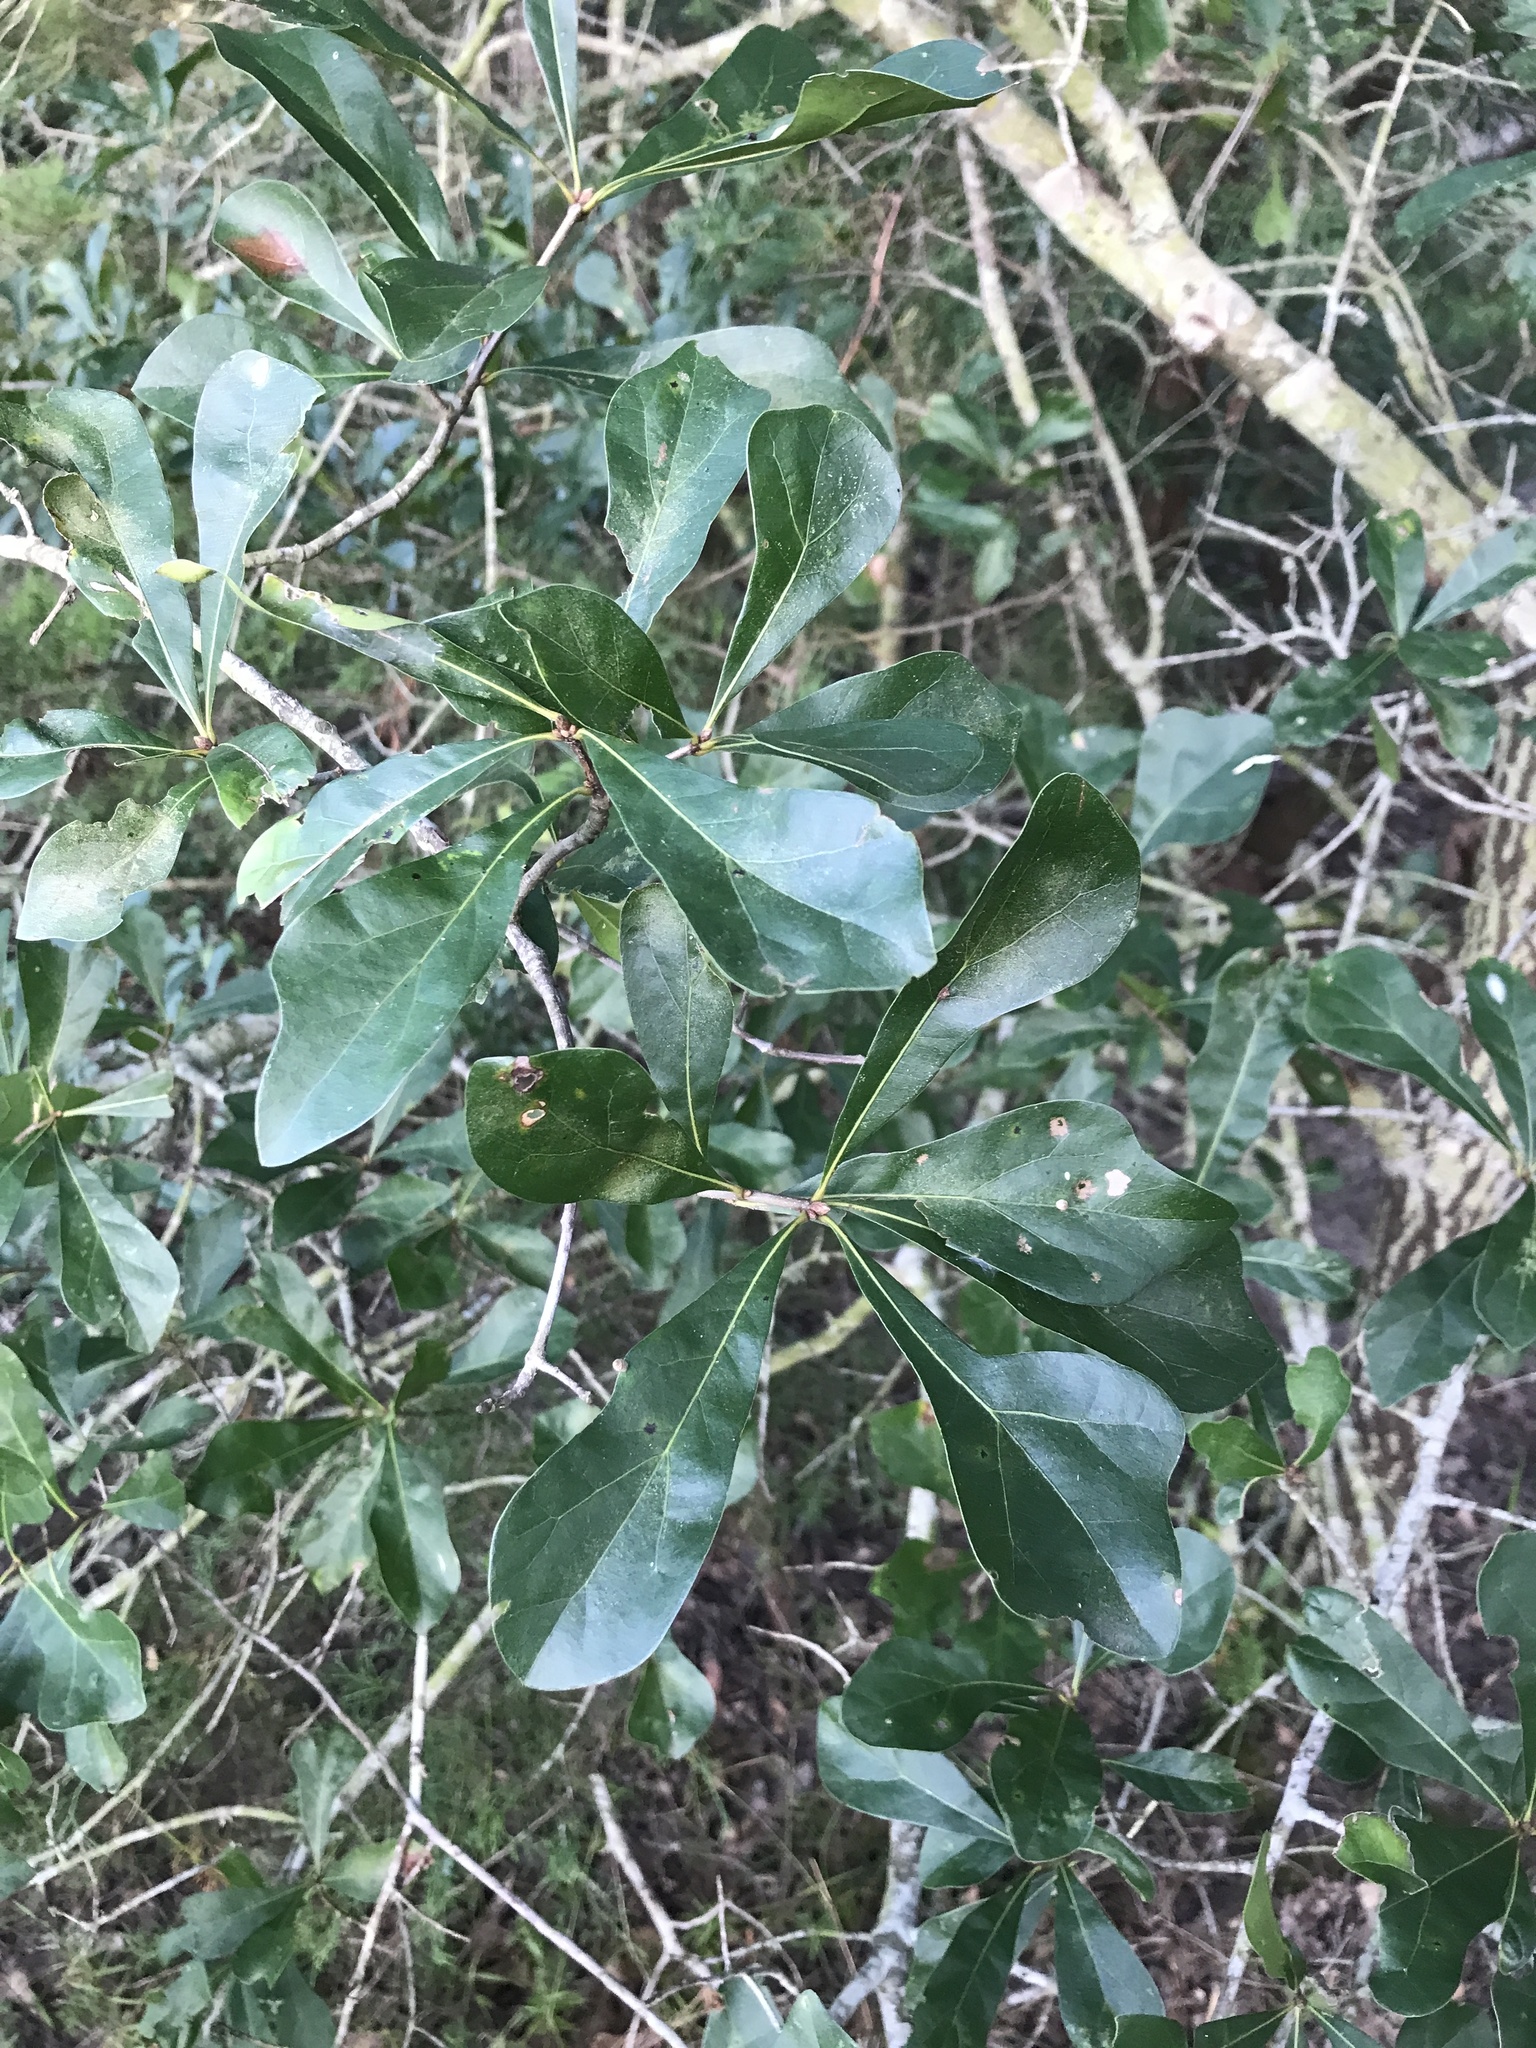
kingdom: Plantae
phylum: Tracheophyta
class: Magnoliopsida
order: Fagales
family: Fagaceae
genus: Quercus
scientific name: Quercus nigra
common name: Water oak
